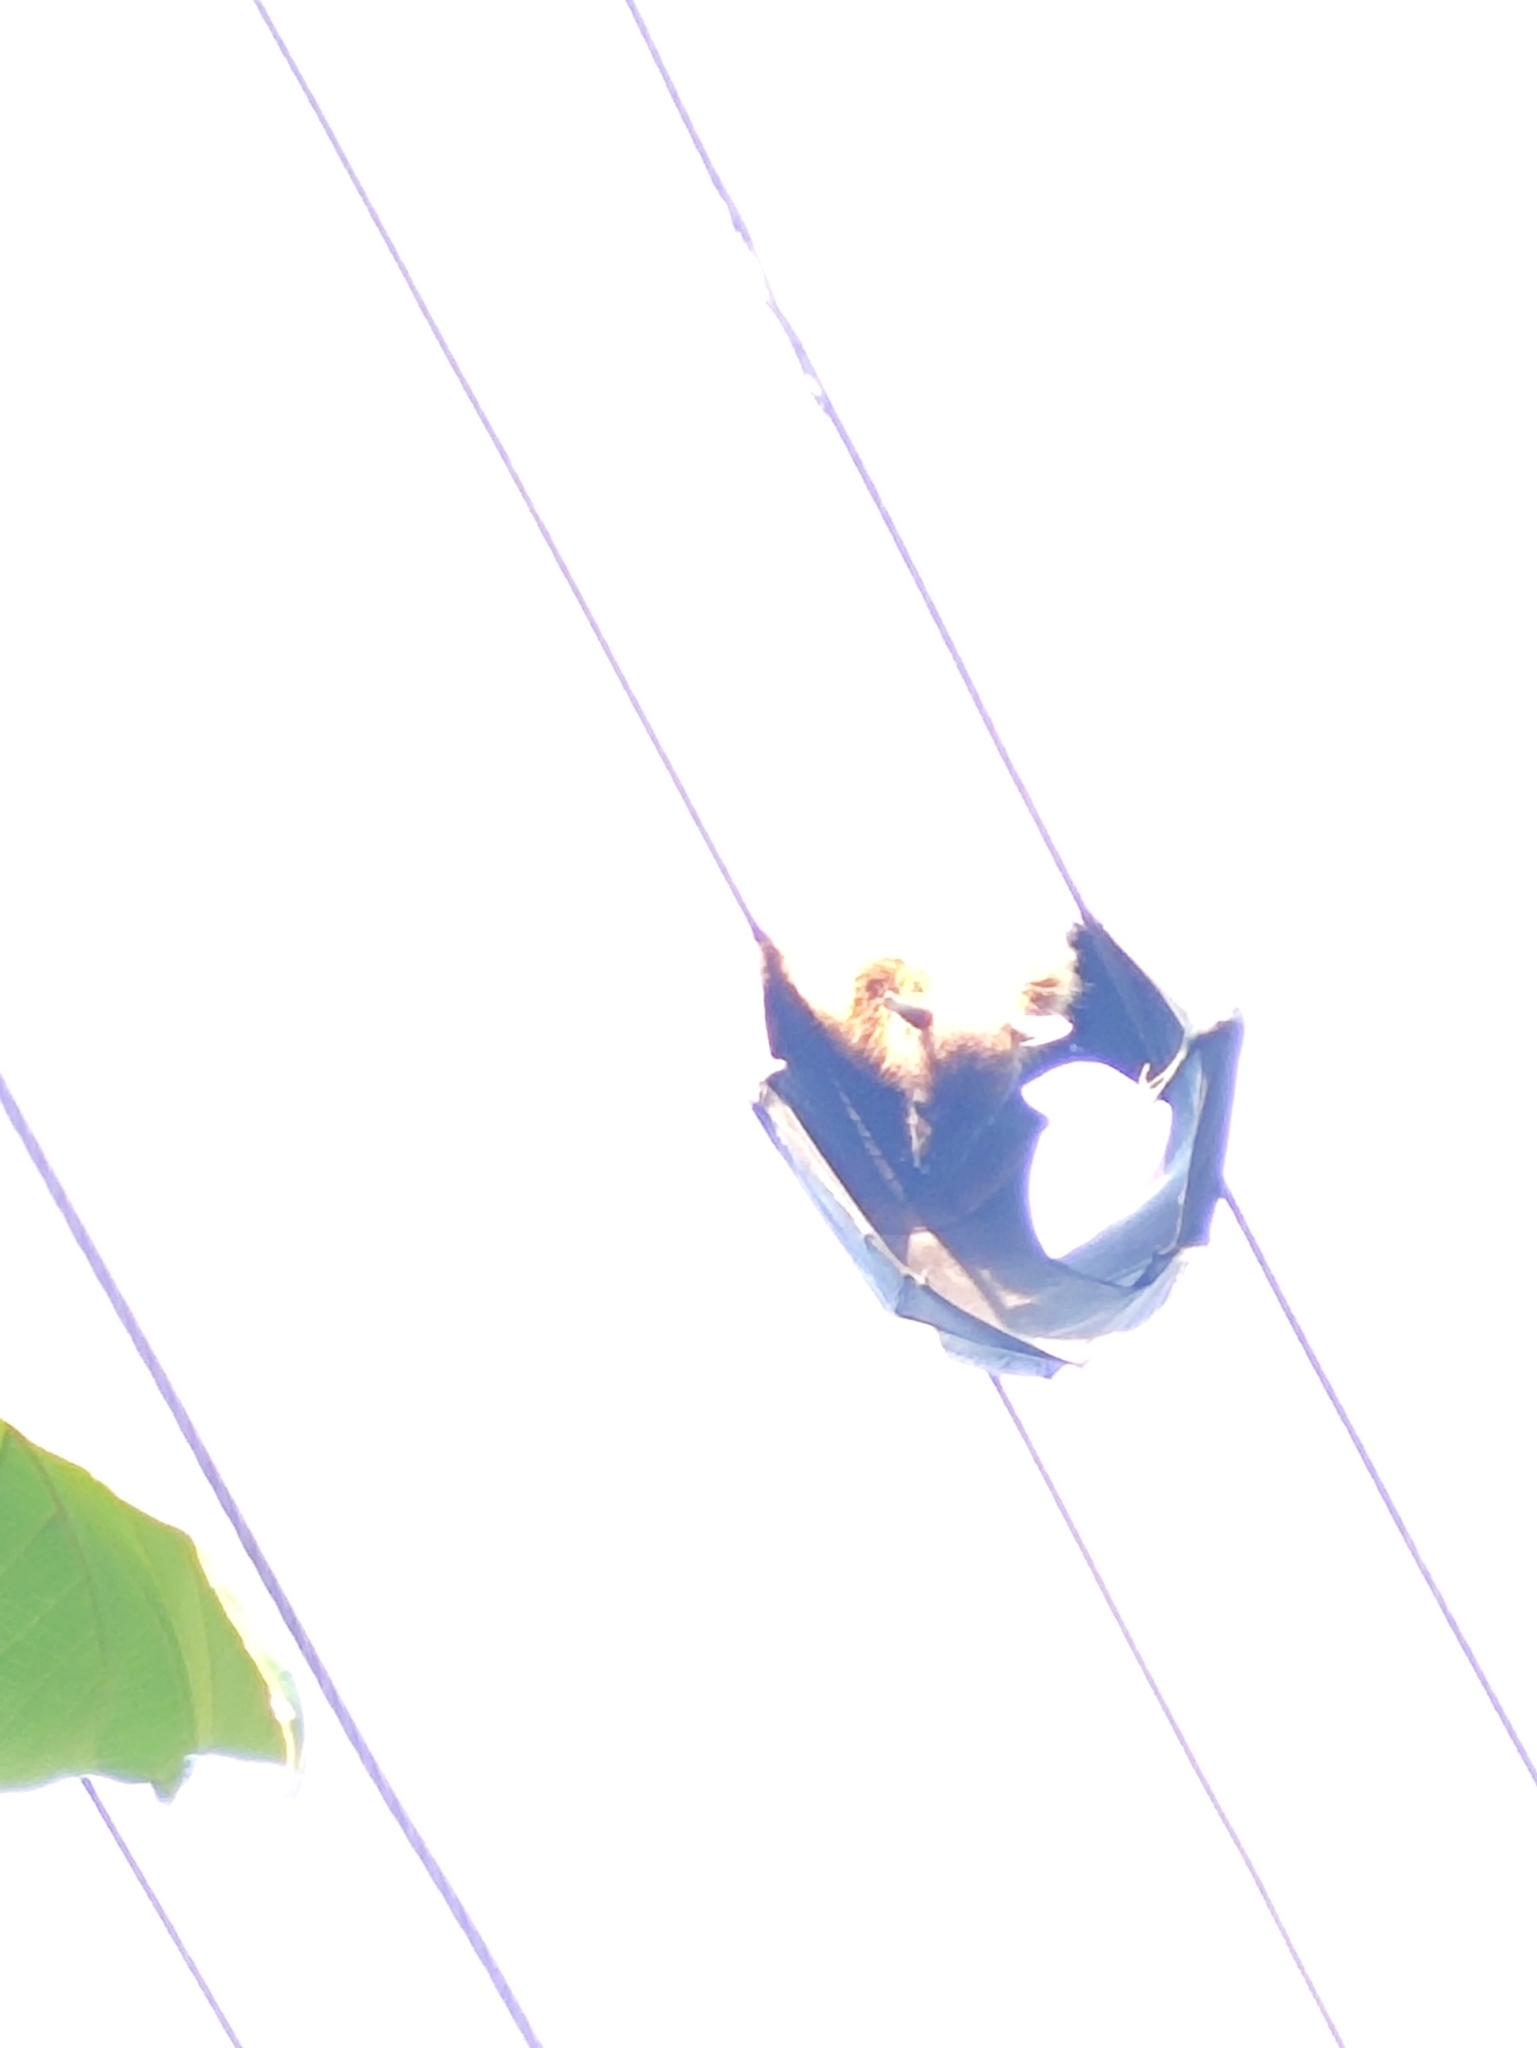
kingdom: Animalia
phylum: Chordata
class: Mammalia
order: Chiroptera
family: Pteropodidae
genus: Pteropus
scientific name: Pteropus vampyrus
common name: Large flying fox
